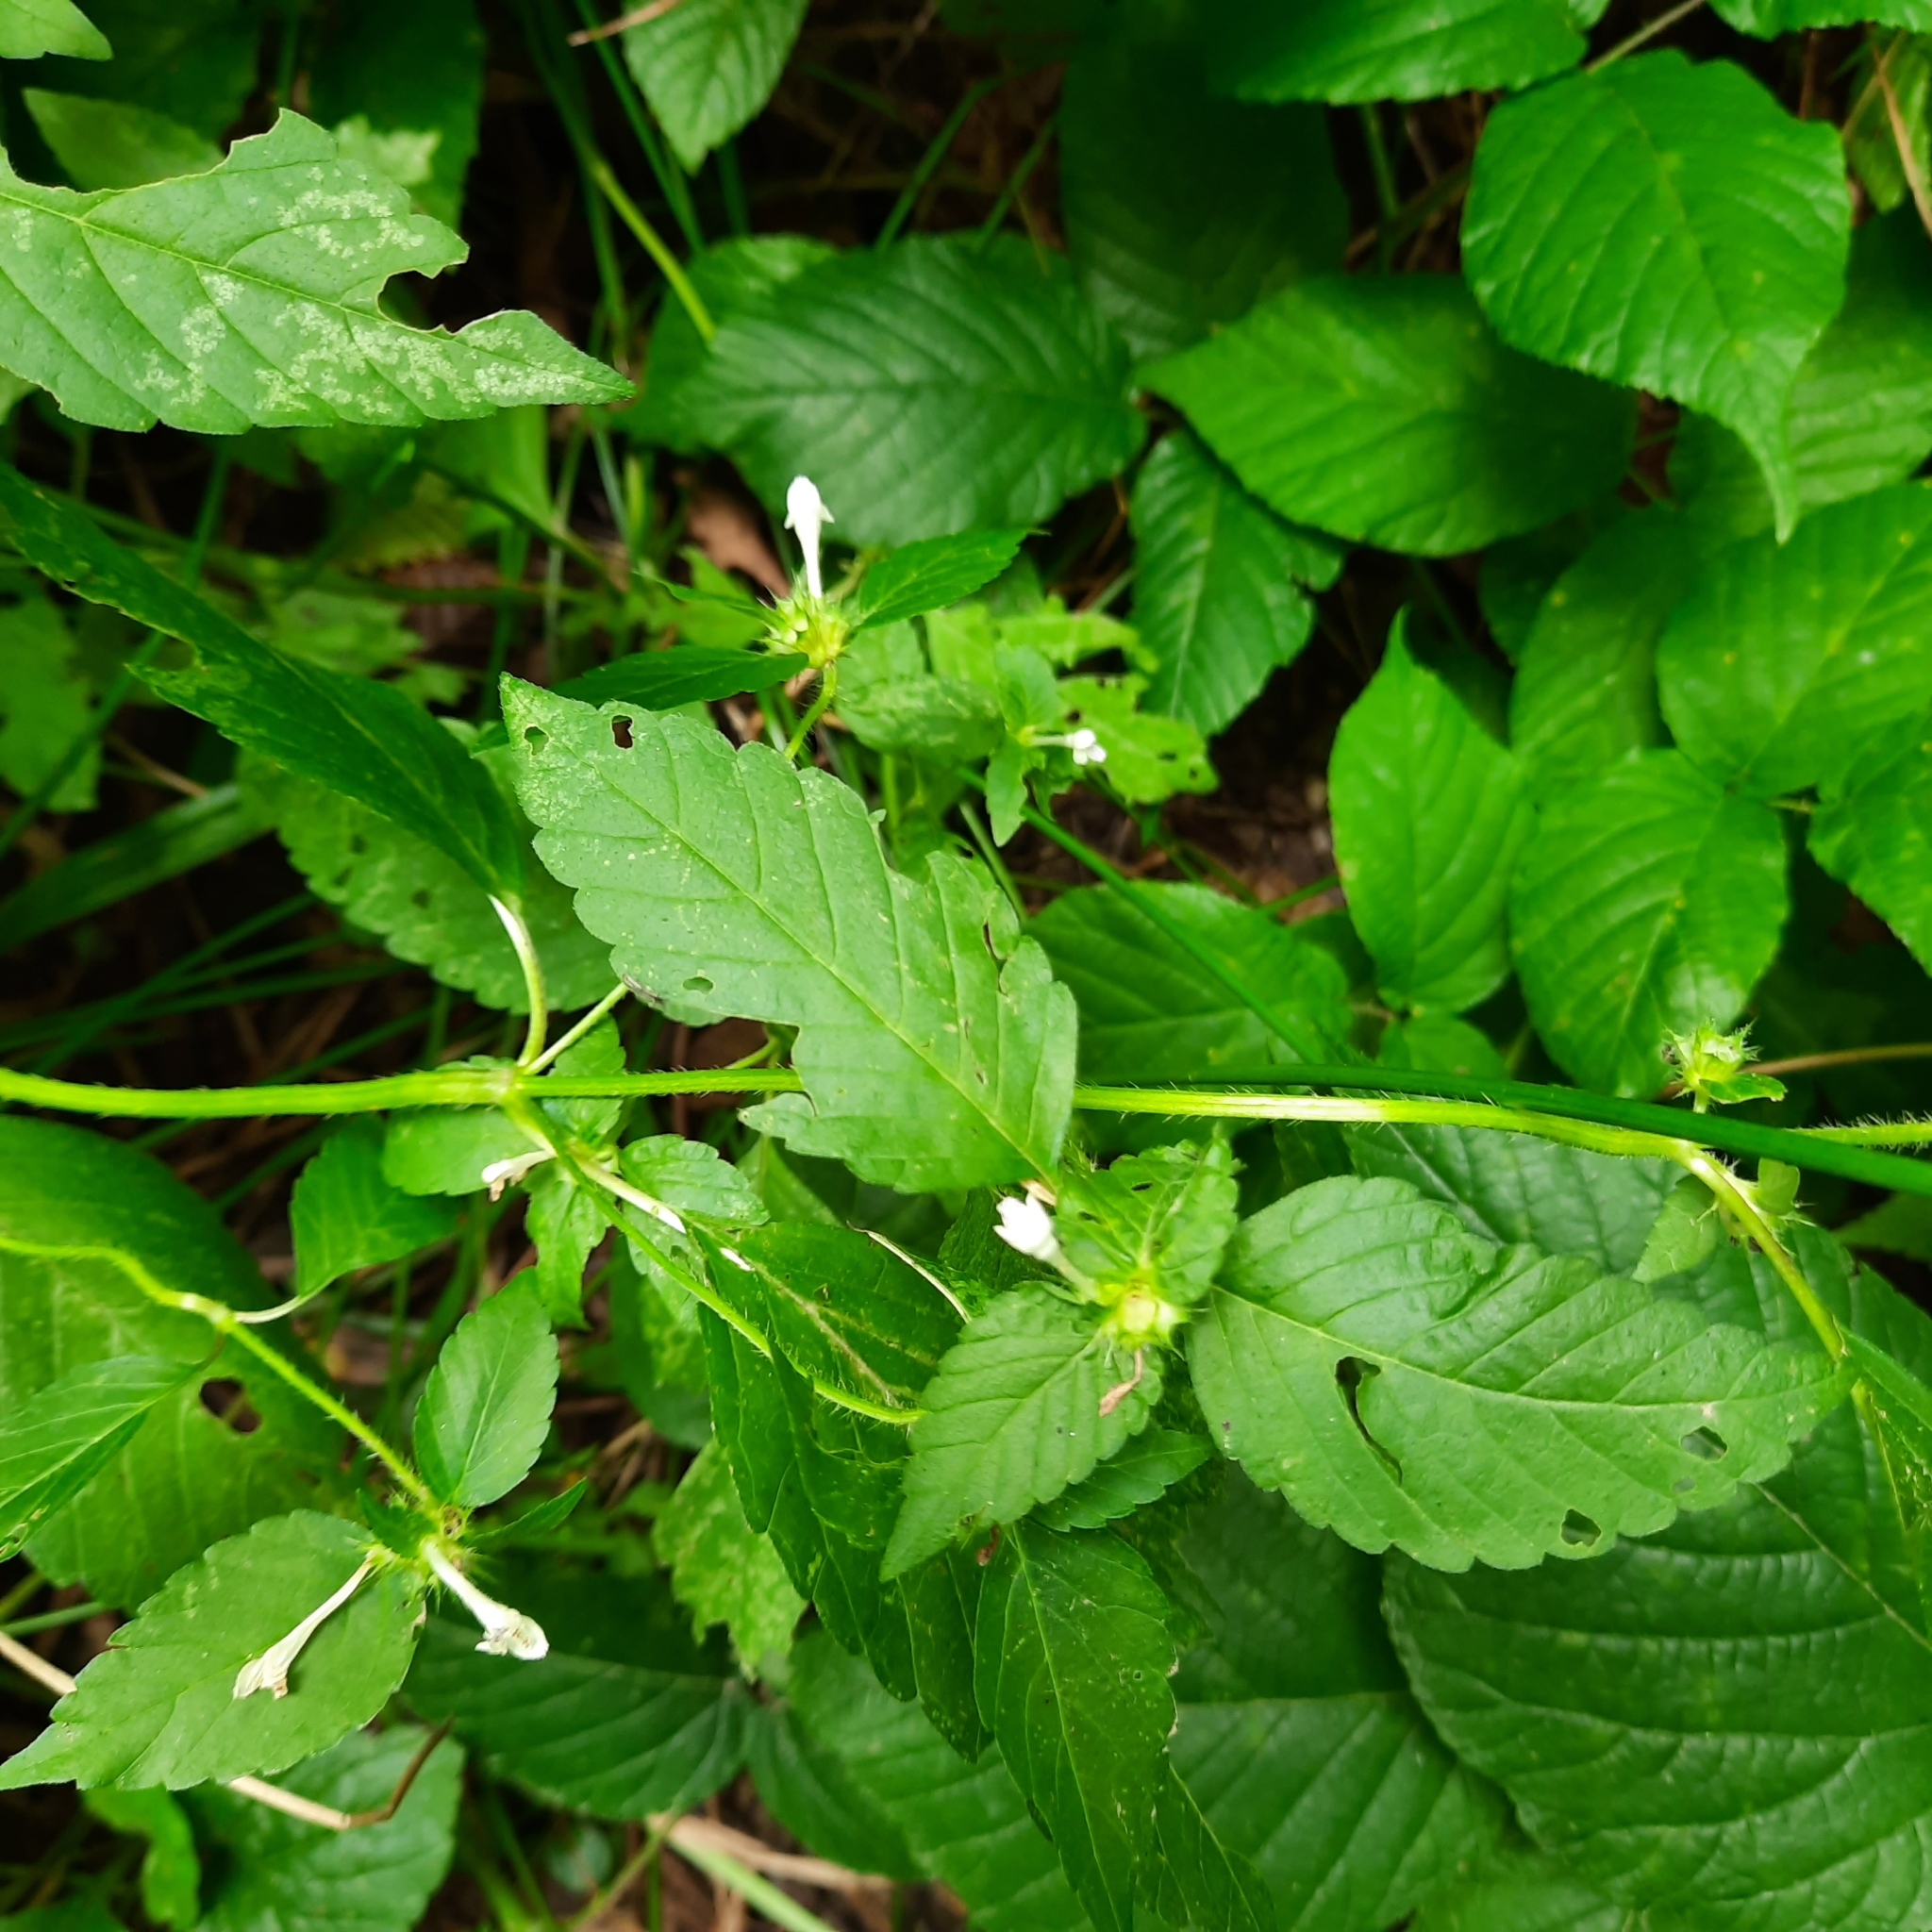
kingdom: Plantae
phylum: Tracheophyta
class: Magnoliopsida
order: Lamiales
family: Lamiaceae
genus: Galeopsis
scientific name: Galeopsis bifida
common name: Bifid hemp-nettle
